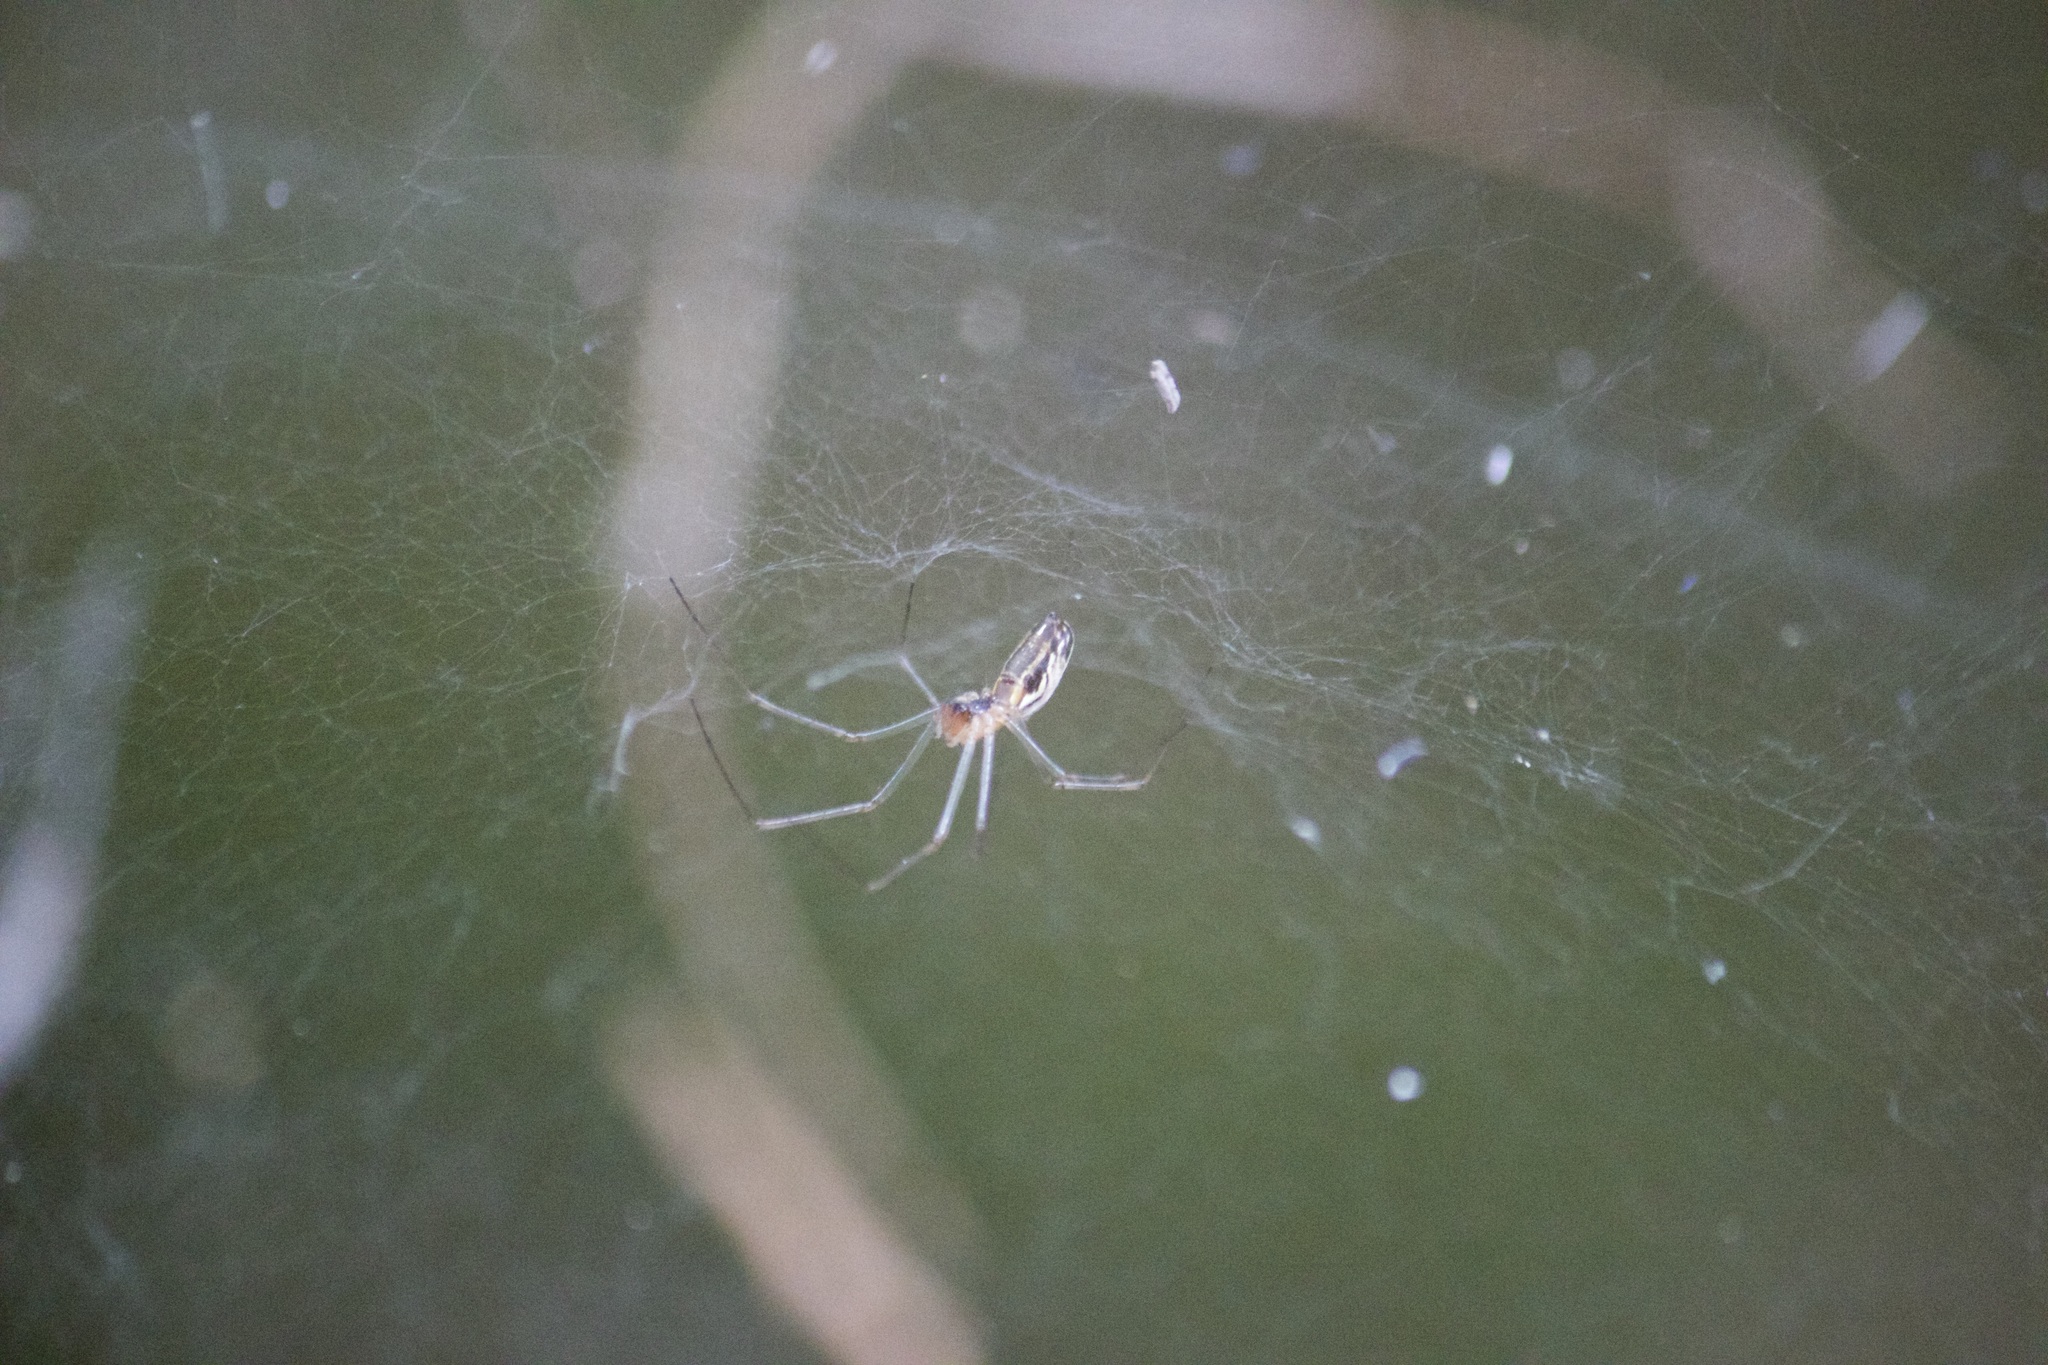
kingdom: Animalia
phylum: Arthropoda
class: Arachnida
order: Araneae
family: Linyphiidae
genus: Neriene
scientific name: Neriene litigiosa
